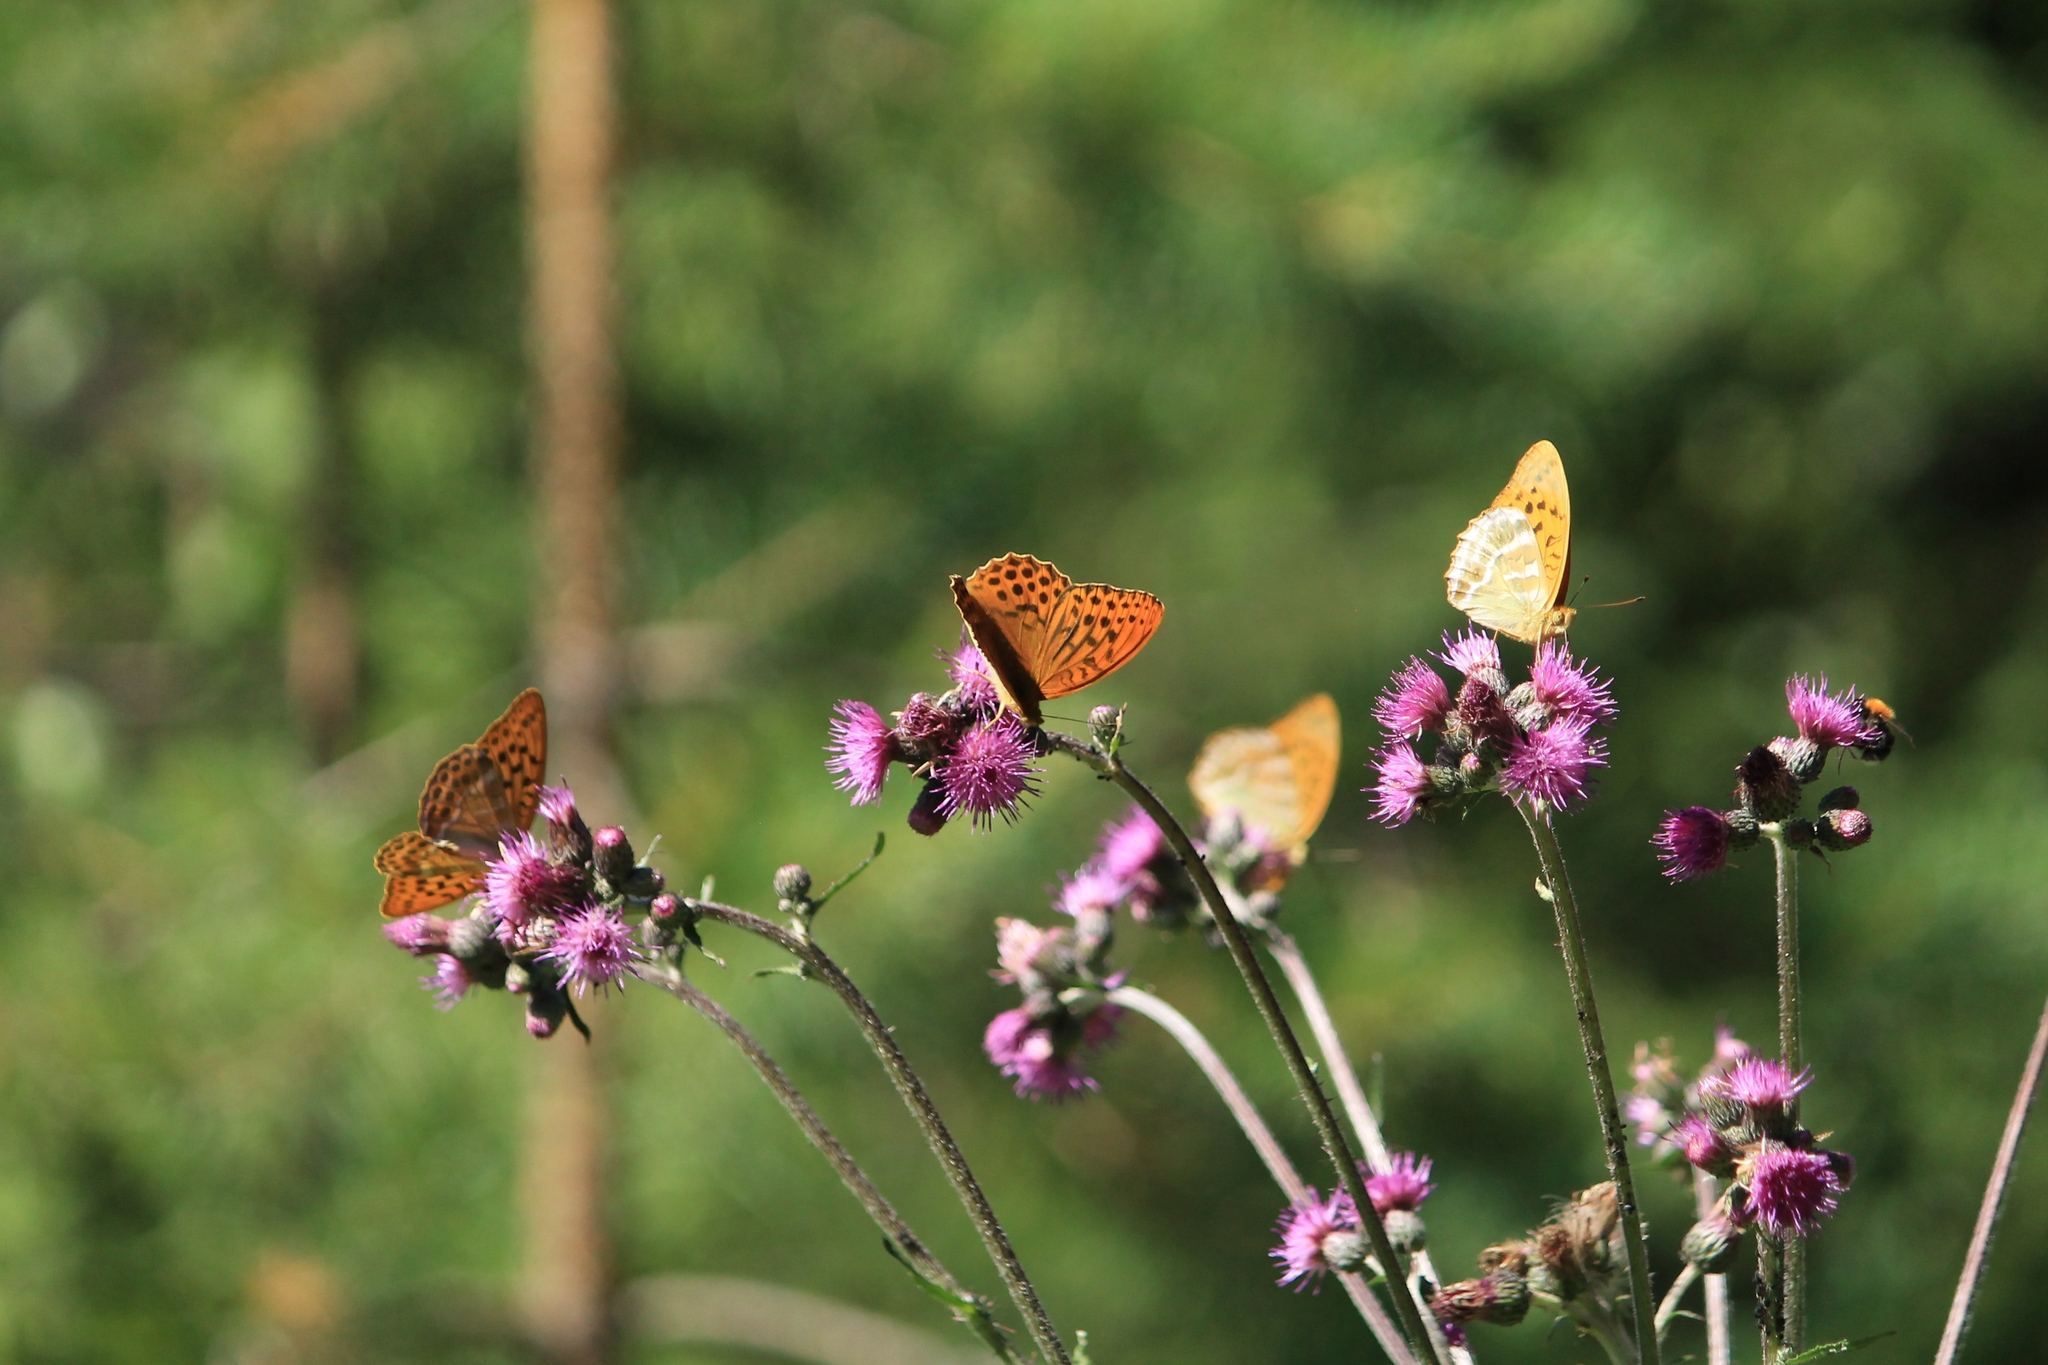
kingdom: Animalia
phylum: Arthropoda
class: Insecta
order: Lepidoptera
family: Nymphalidae
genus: Argynnis
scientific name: Argynnis paphia
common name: Silver-washed fritillary
